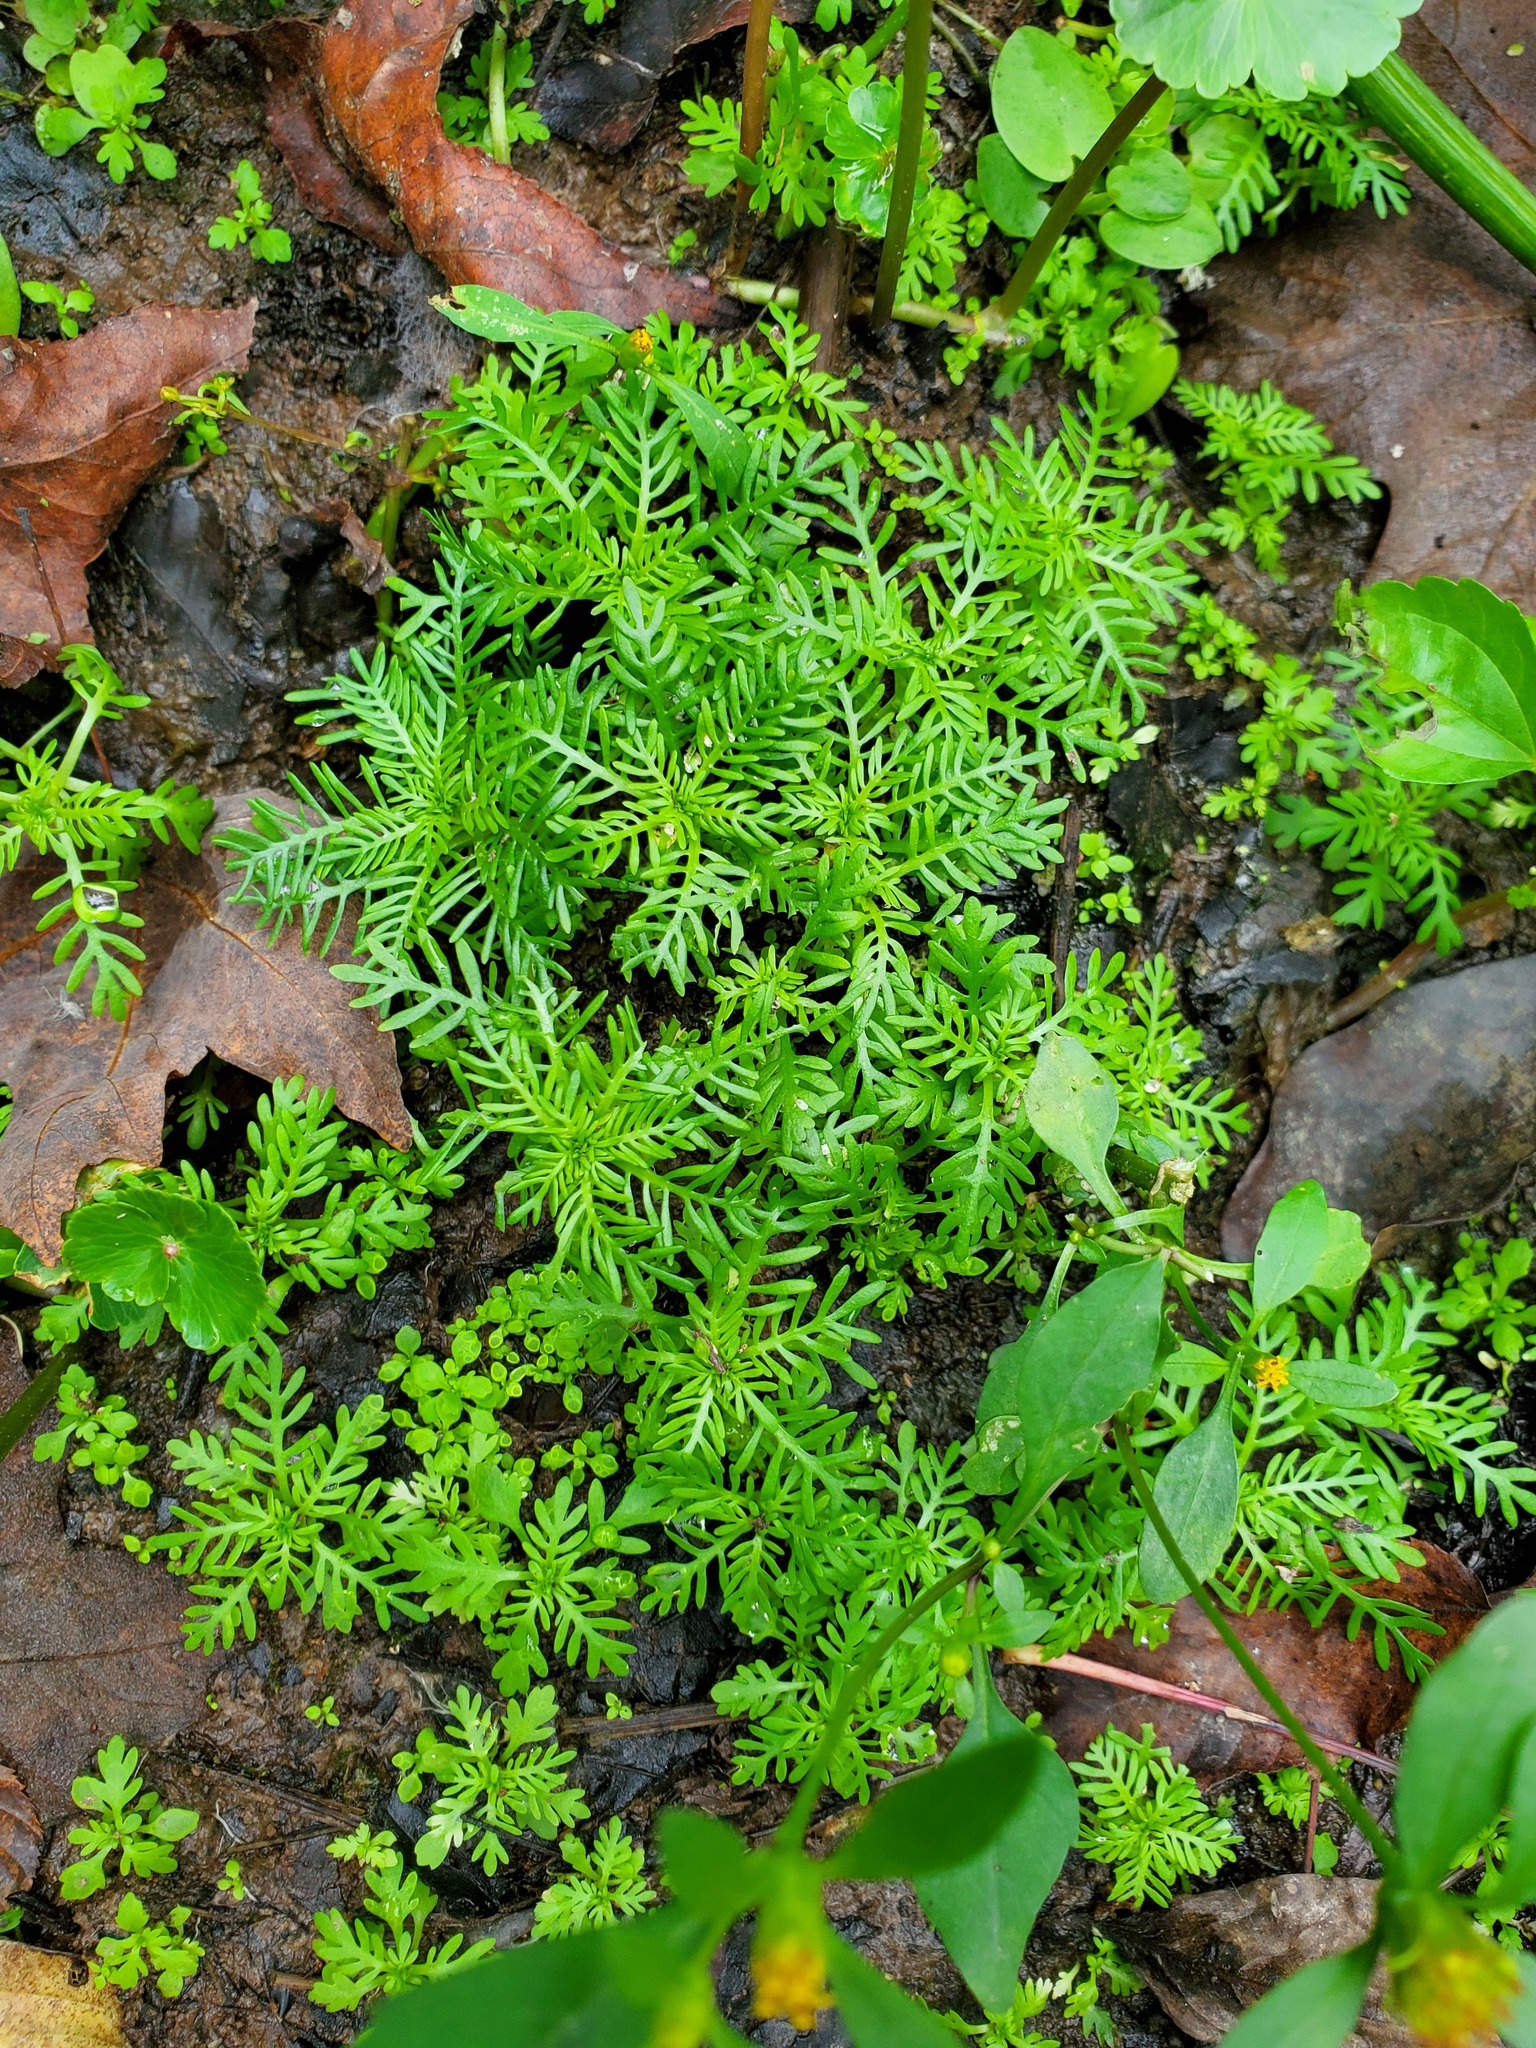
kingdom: Plantae
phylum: Tracheophyta
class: Magnoliopsida
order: Ericales
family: Primulaceae
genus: Hottonia
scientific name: Hottonia inflata
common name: American featherfoil
